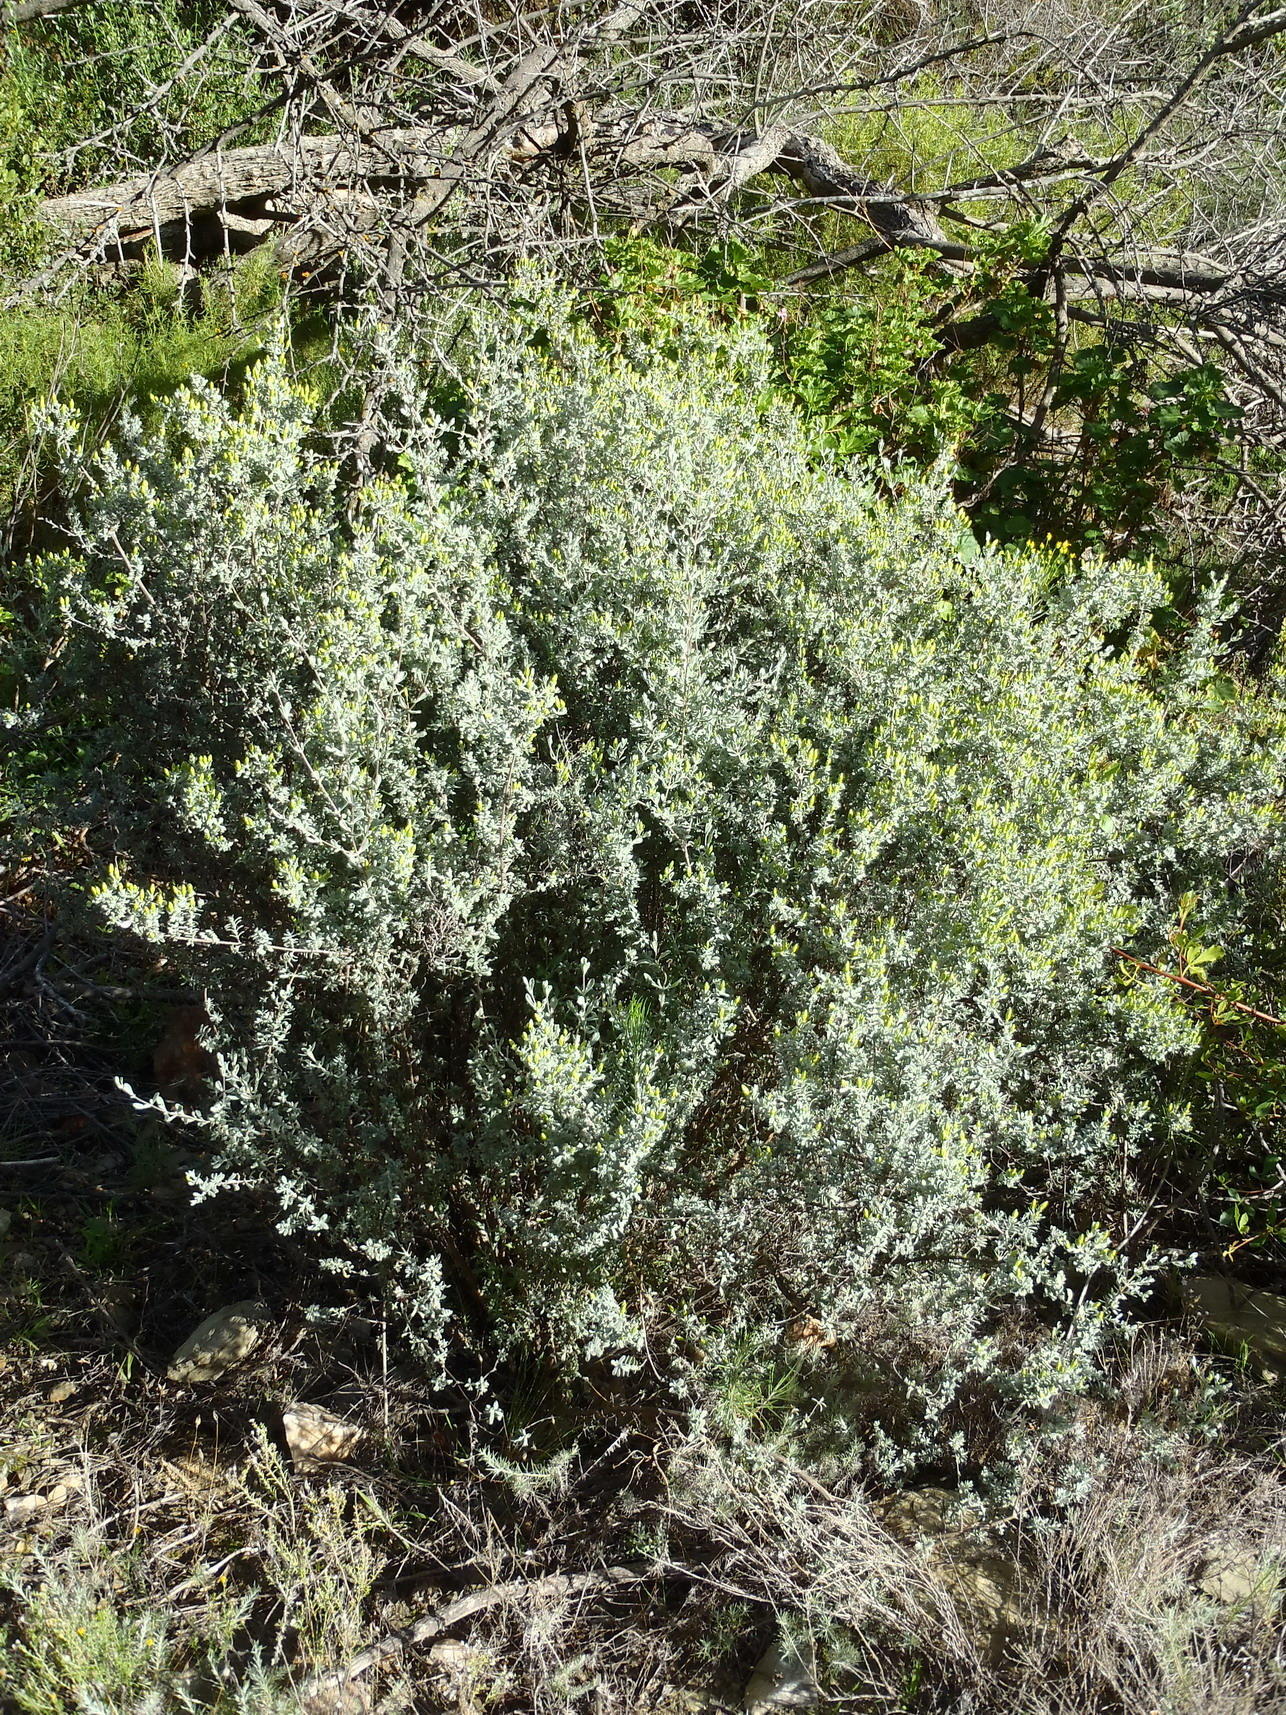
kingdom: Plantae
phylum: Tracheophyta
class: Magnoliopsida
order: Asterales
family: Asteraceae
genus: Pteronia
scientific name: Pteronia incana
